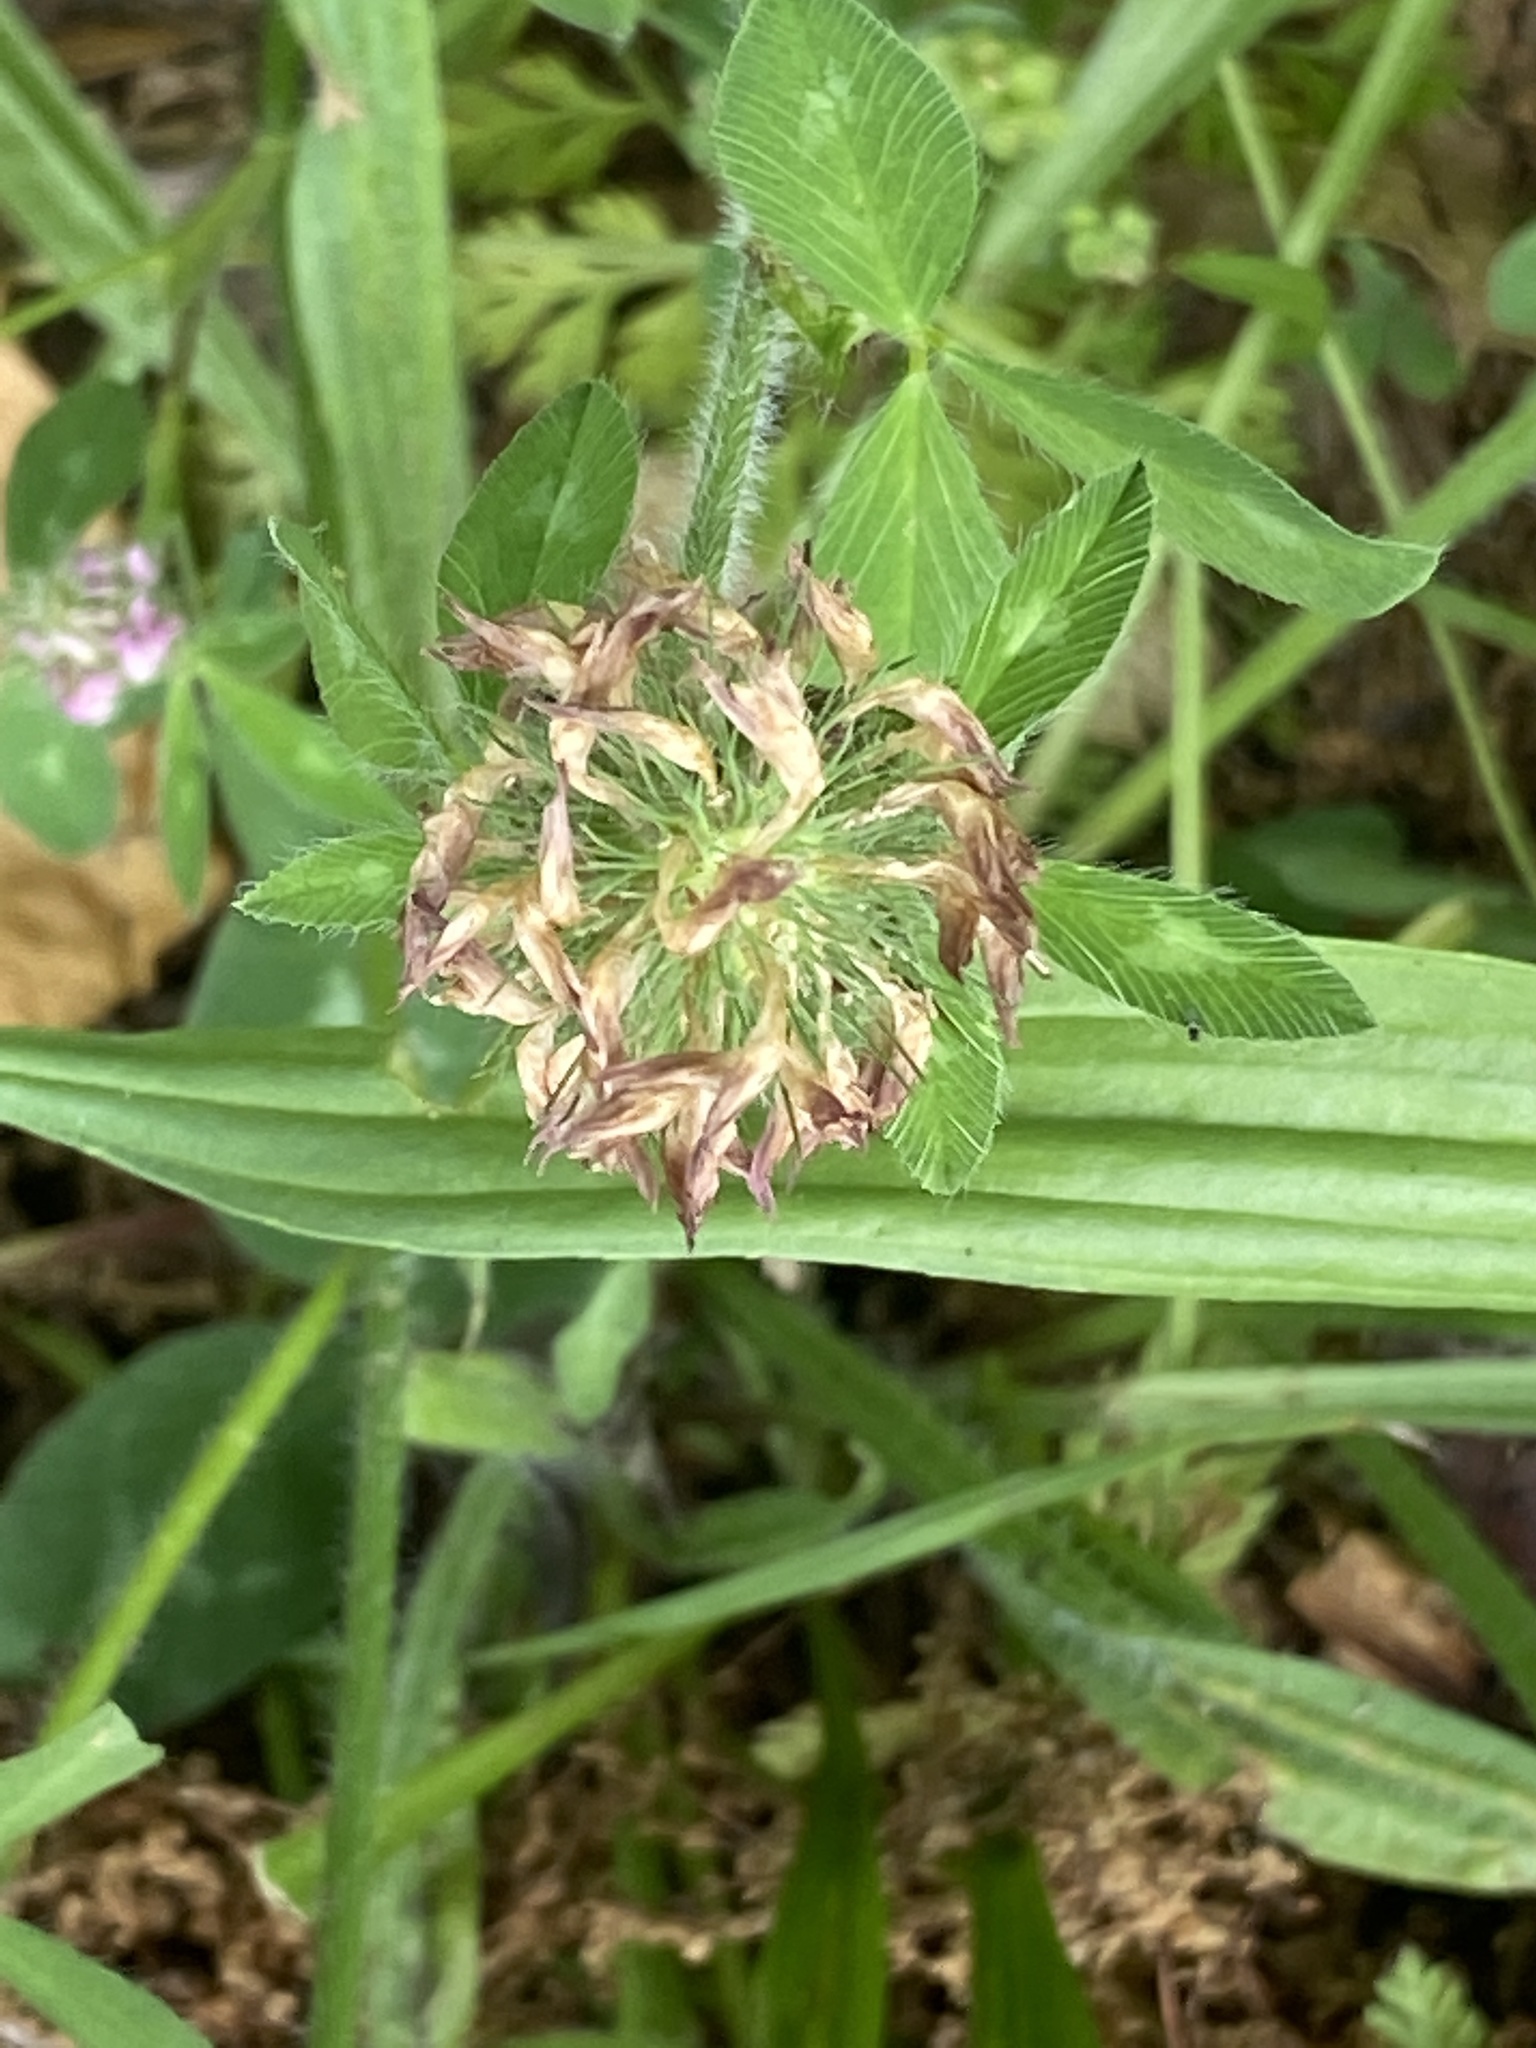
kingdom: Plantae
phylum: Tracheophyta
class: Magnoliopsida
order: Fabales
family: Fabaceae
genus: Trifolium
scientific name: Trifolium pratense
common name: Red clover
